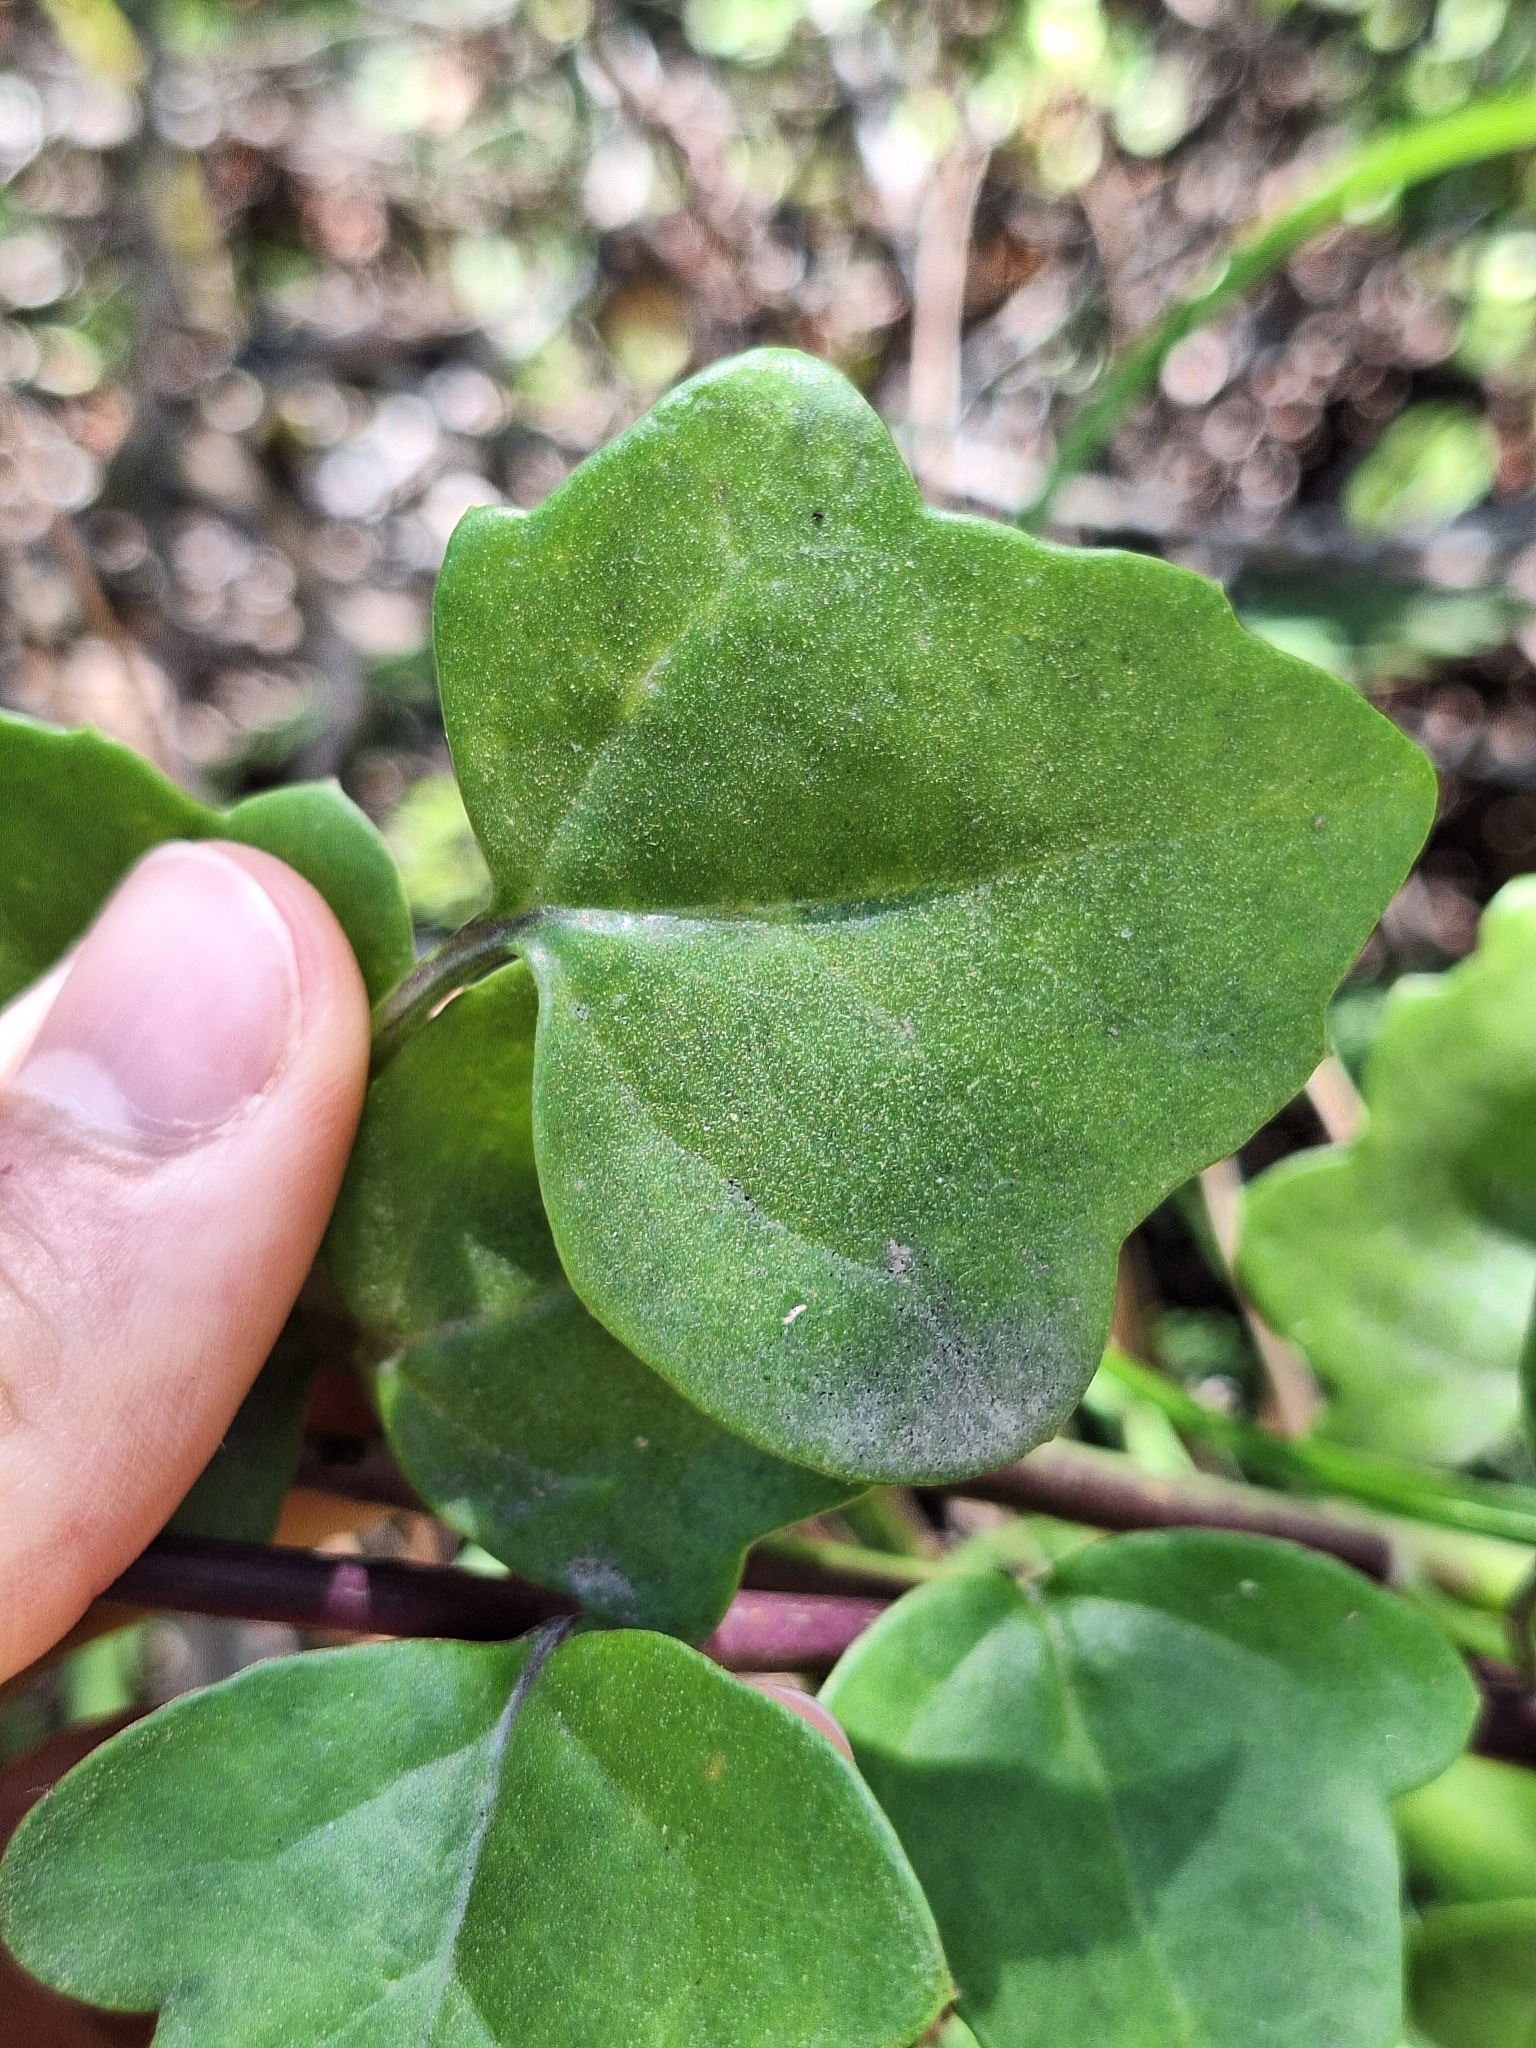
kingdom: Plantae
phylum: Tracheophyta
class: Magnoliopsida
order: Asterales
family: Asteraceae
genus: Senecio
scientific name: Senecio angulatus
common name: Climbing groundsel
